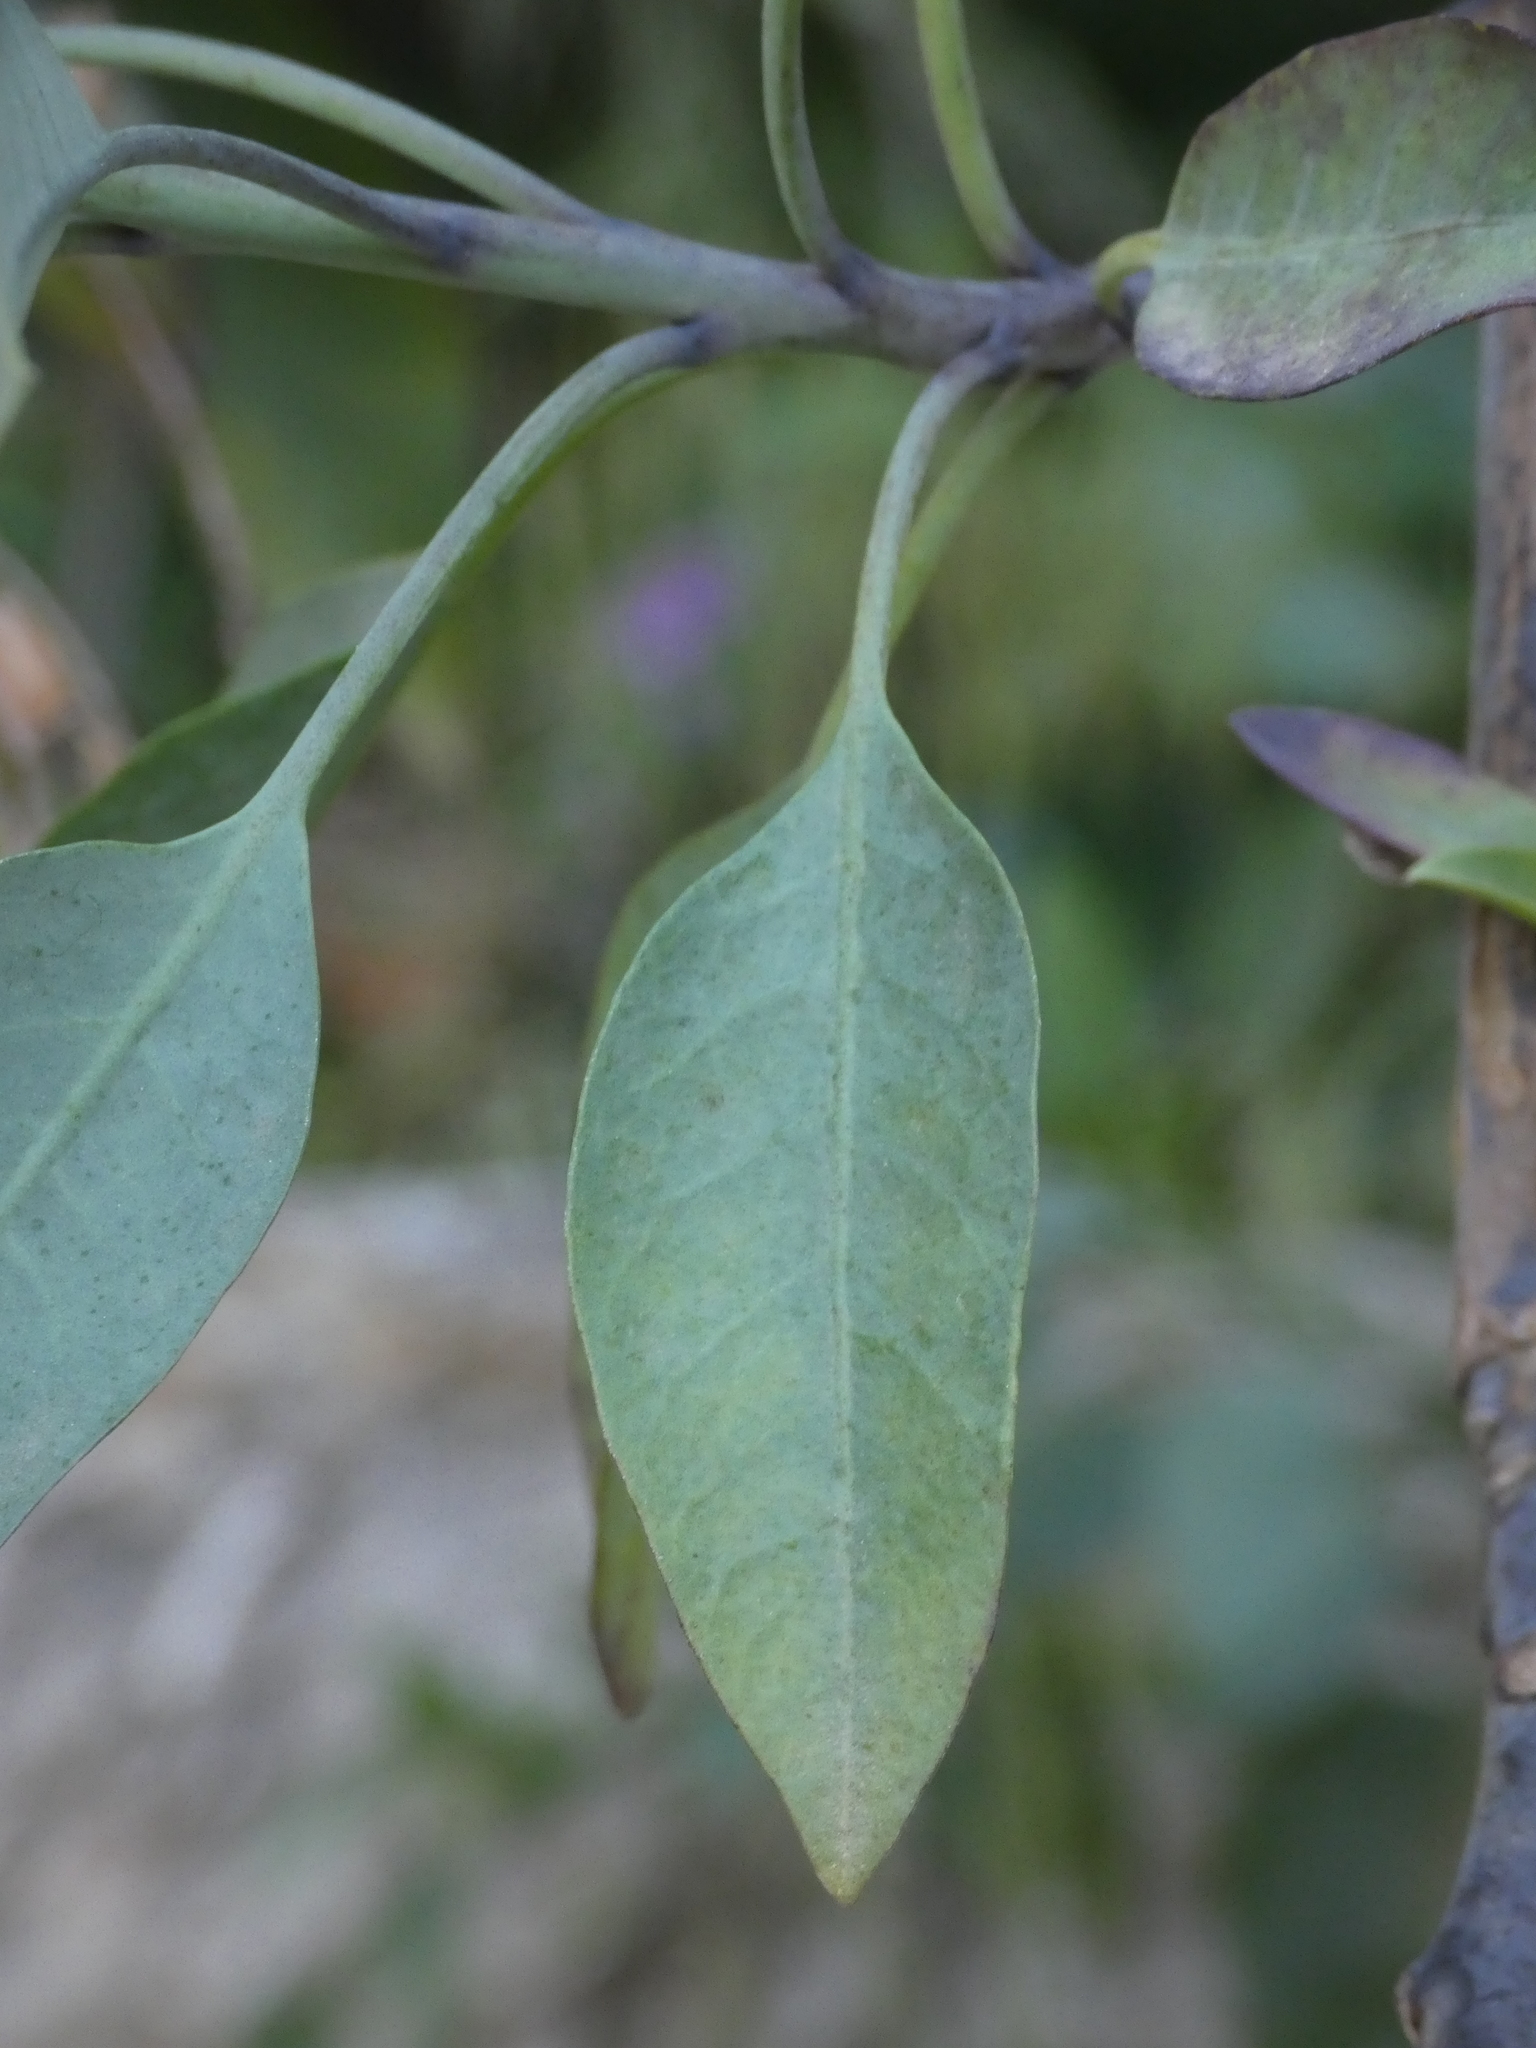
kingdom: Plantae
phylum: Tracheophyta
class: Magnoliopsida
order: Solanales
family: Solanaceae
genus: Nicotiana
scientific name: Nicotiana glauca
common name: Tree tobacco
